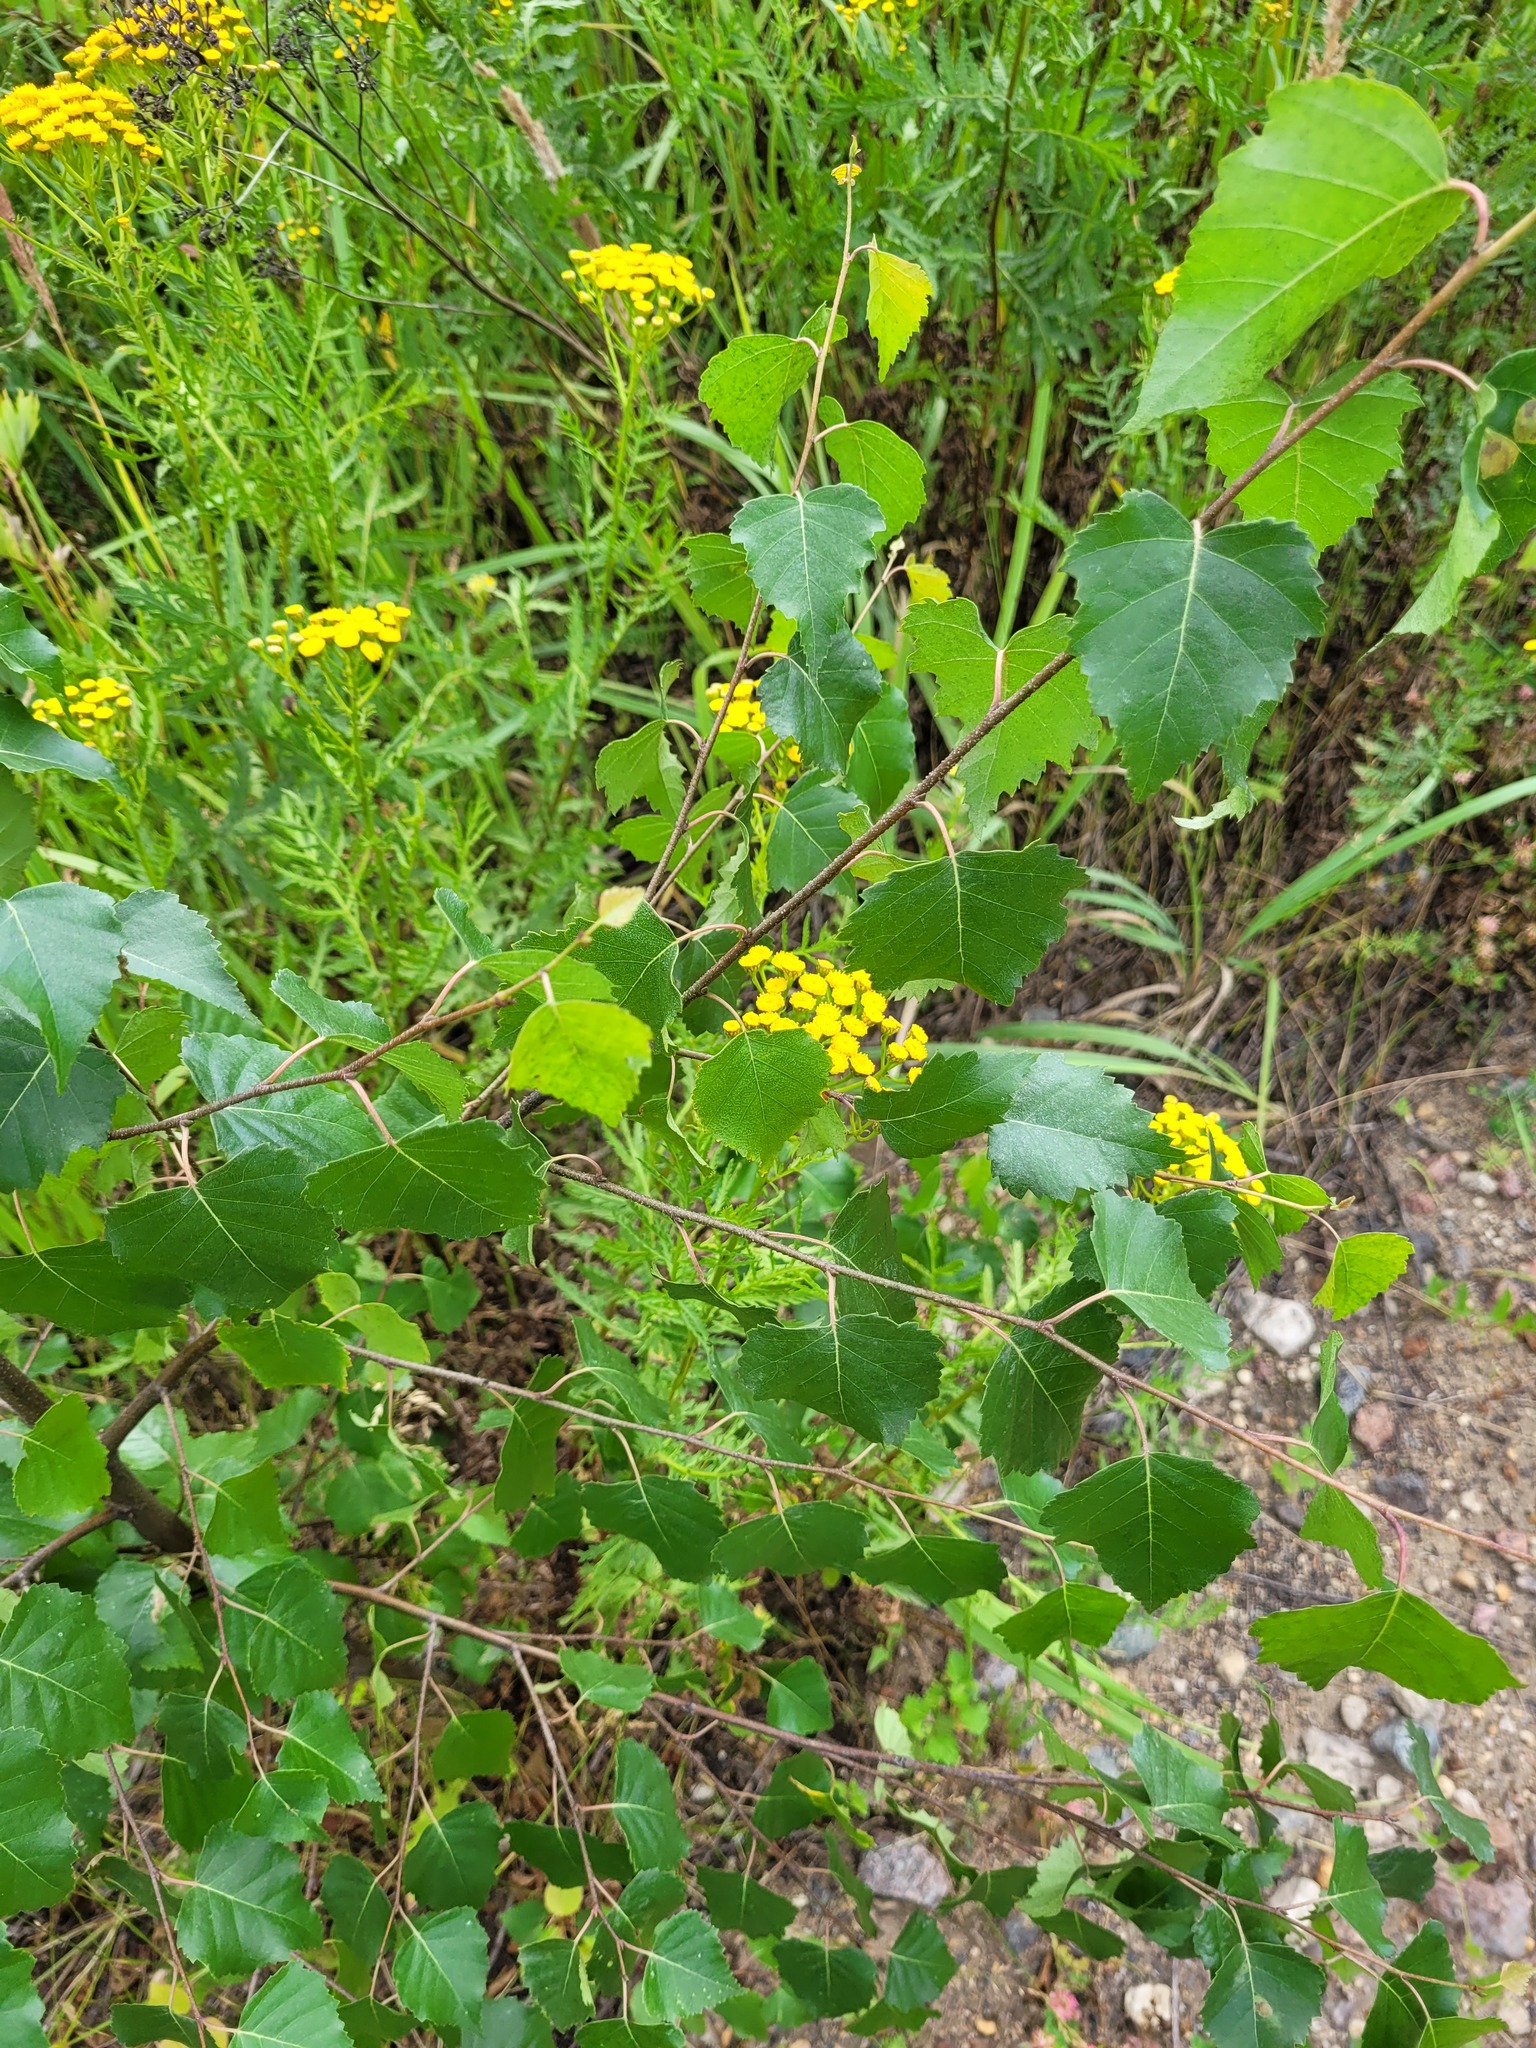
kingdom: Plantae
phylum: Tracheophyta
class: Magnoliopsida
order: Fagales
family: Betulaceae
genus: Betula
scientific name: Betula pendula
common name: Silver birch
